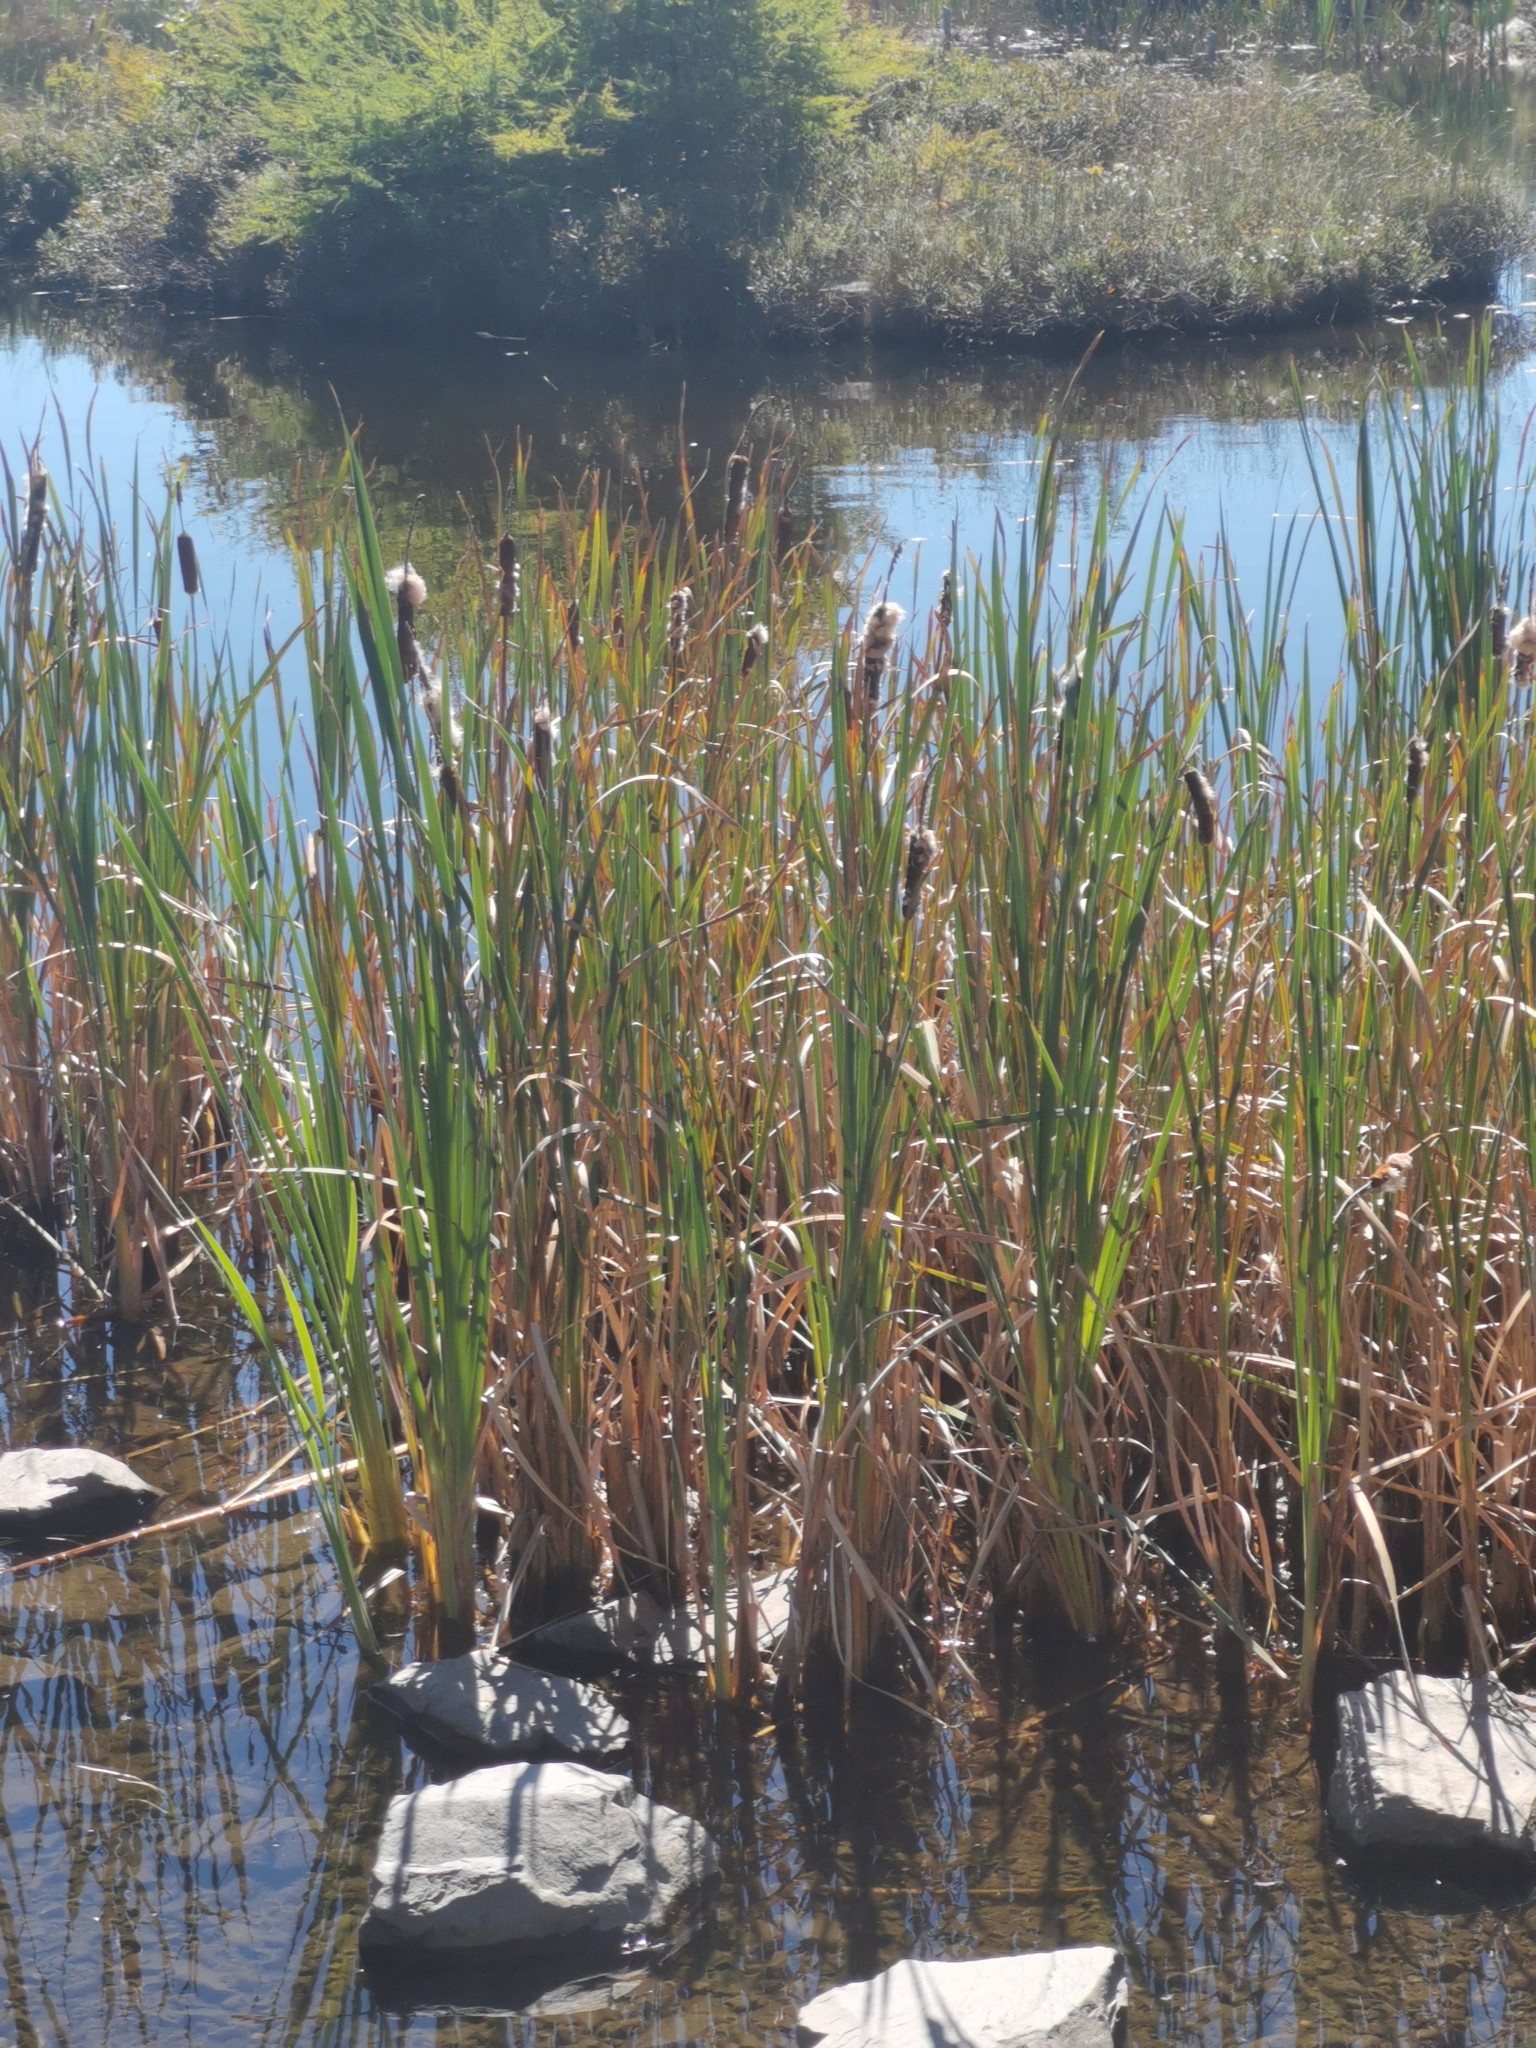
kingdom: Plantae
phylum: Tracheophyta
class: Liliopsida
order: Poales
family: Typhaceae
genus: Typha
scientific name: Typha latifolia
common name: Broadleaf cattail
